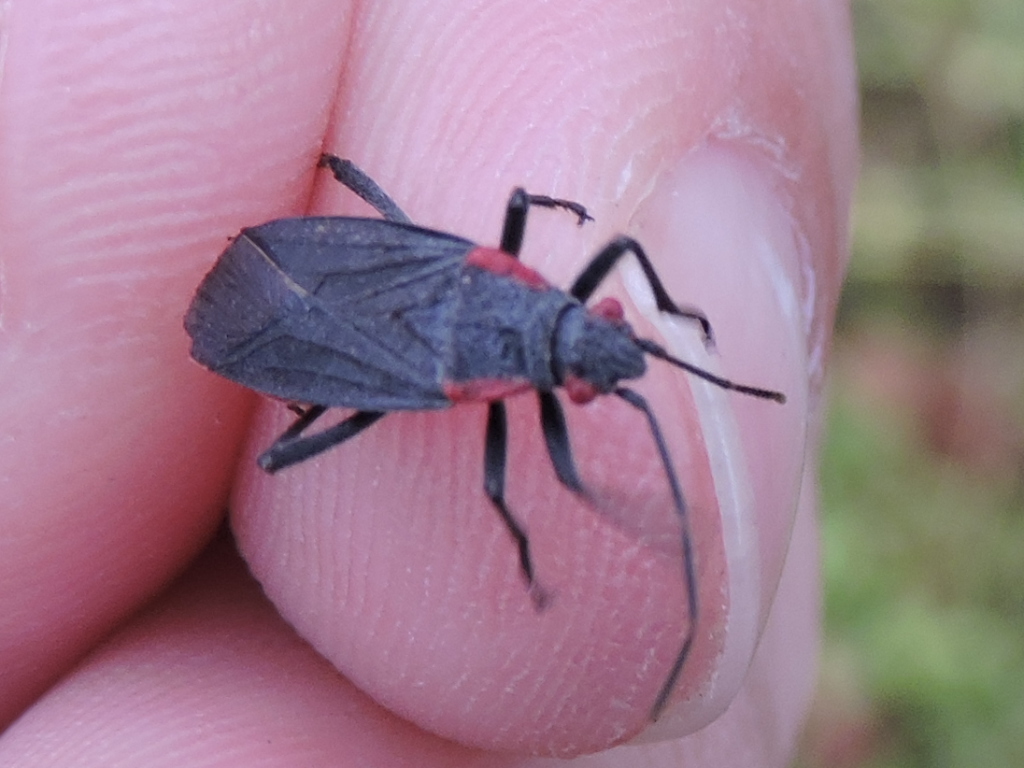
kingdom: Animalia
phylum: Arthropoda
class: Insecta
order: Hemiptera
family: Rhopalidae
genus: Jadera
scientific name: Jadera haematoloma
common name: Red-shouldered bug
